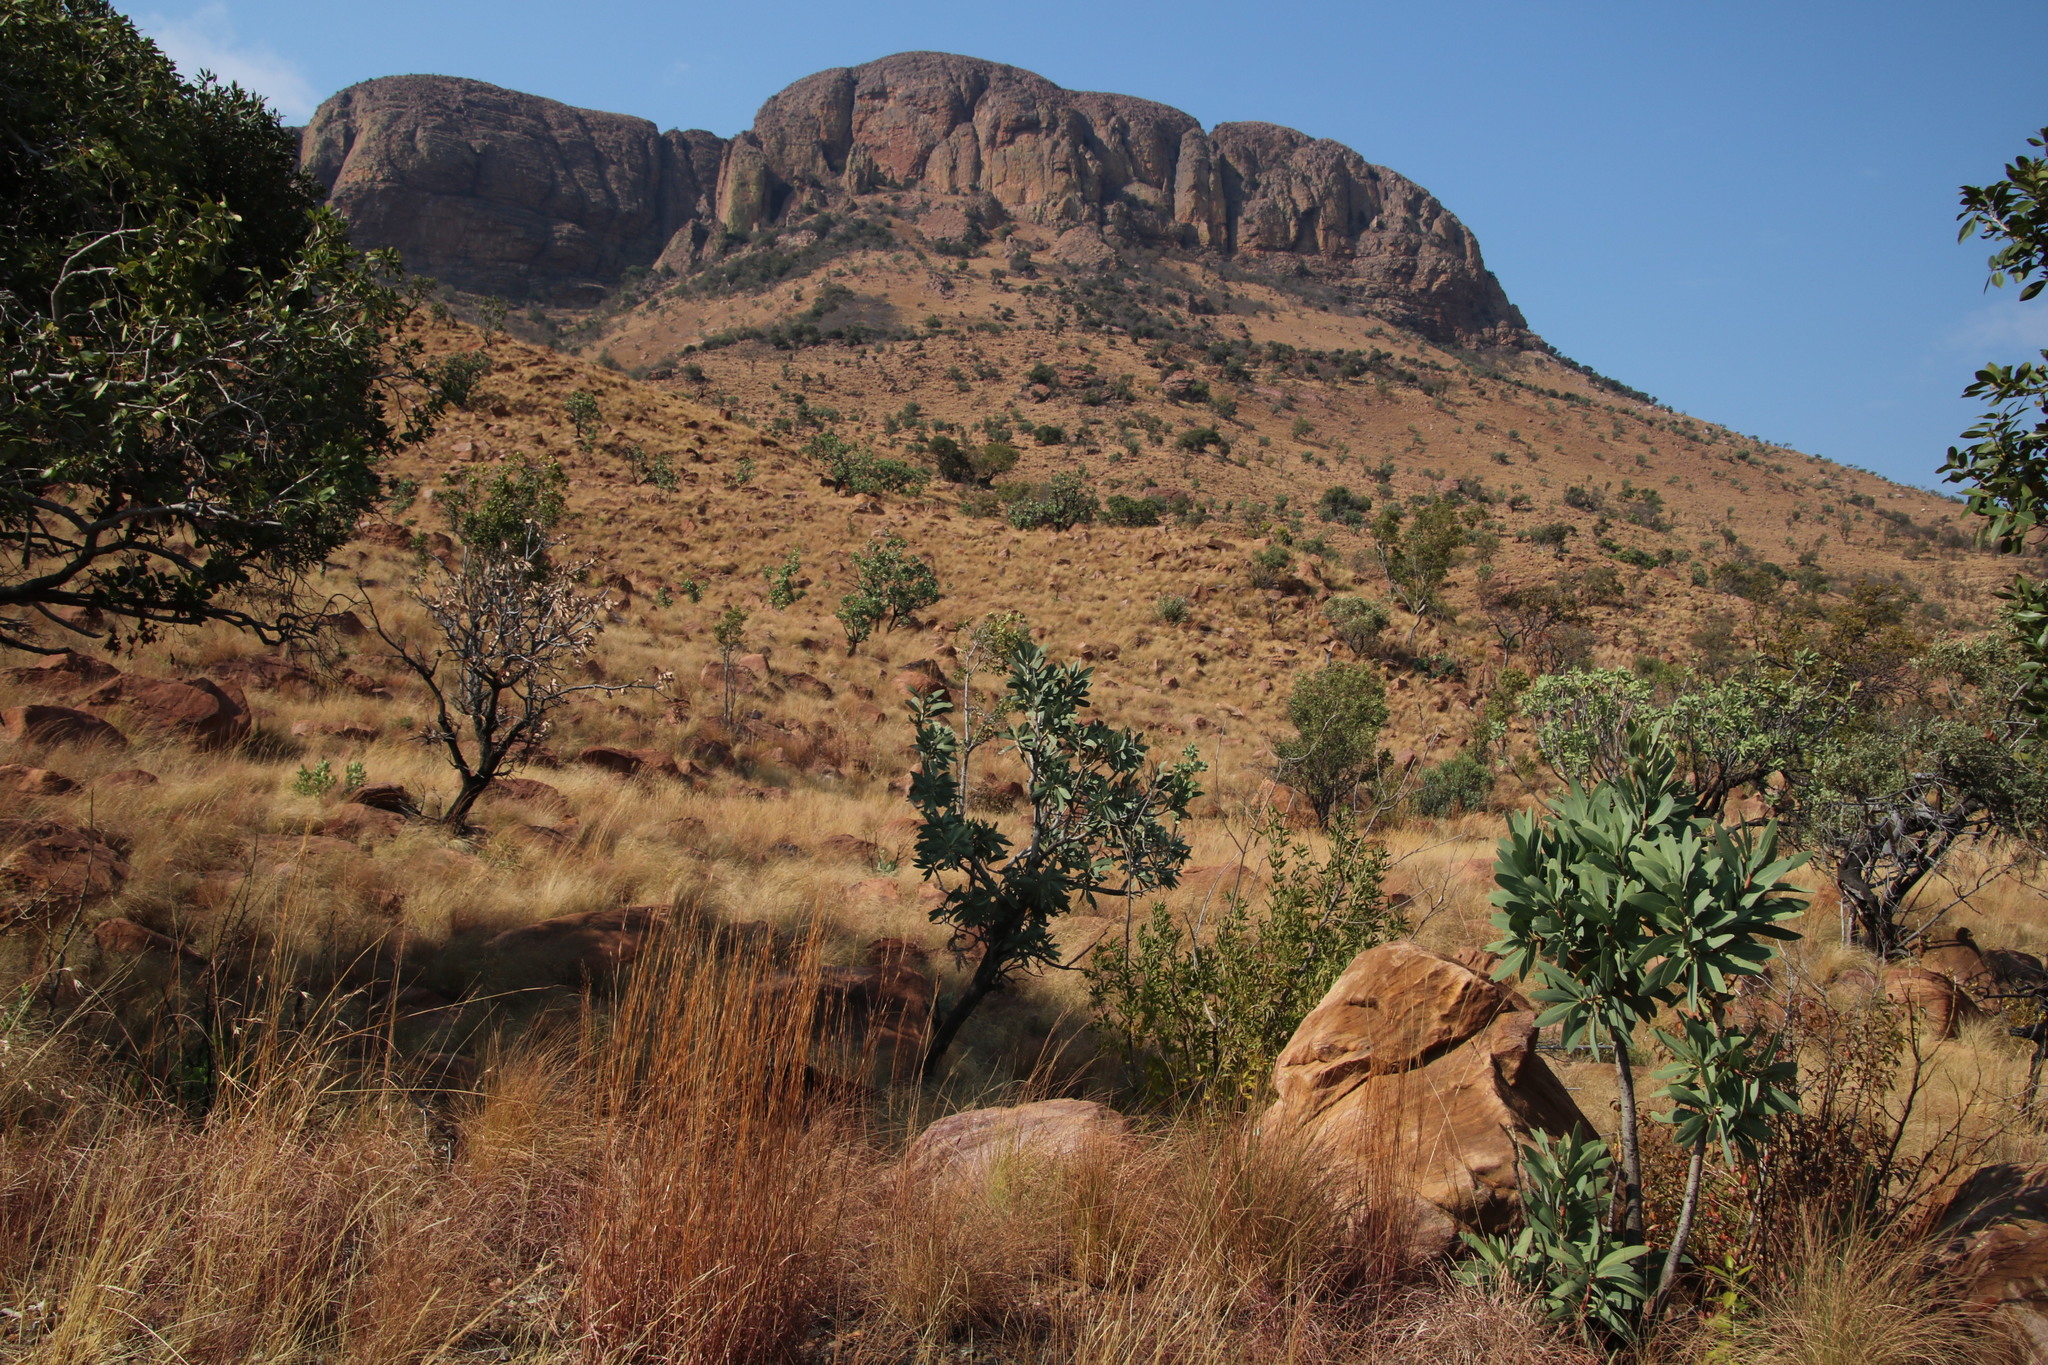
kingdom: Plantae
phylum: Tracheophyta
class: Magnoliopsida
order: Proteales
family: Proteaceae
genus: Protea
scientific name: Protea caffra
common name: Common sugarbush
